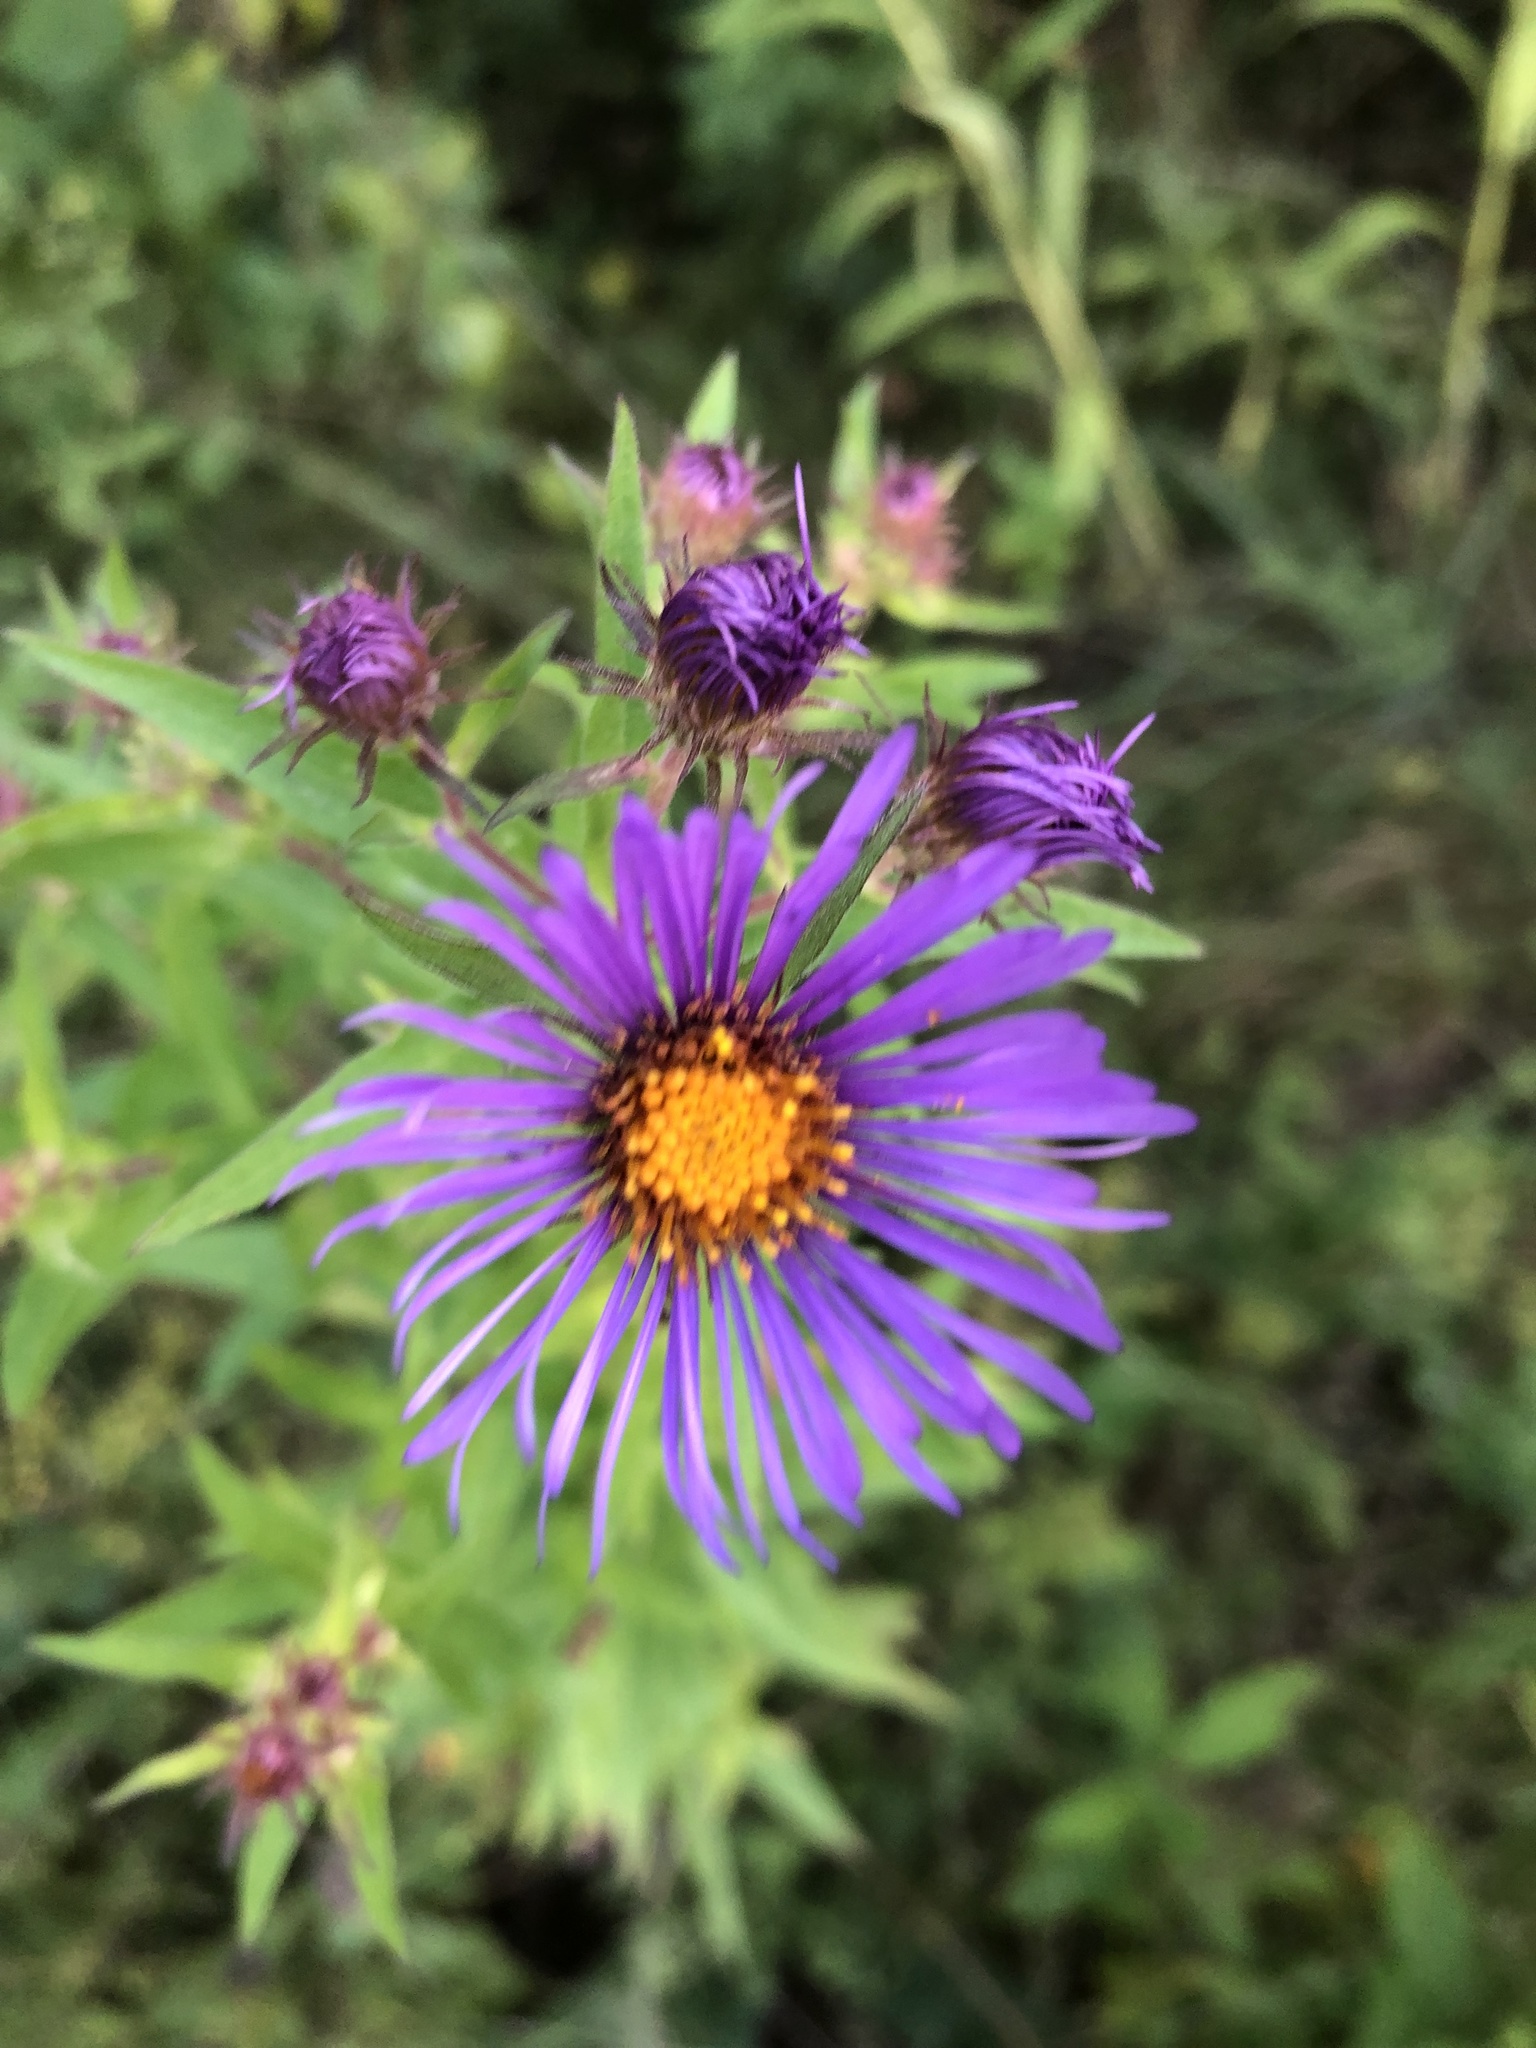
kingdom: Plantae
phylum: Tracheophyta
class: Magnoliopsida
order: Asterales
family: Asteraceae
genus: Symphyotrichum
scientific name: Symphyotrichum novae-angliae
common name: Michaelmas daisy
